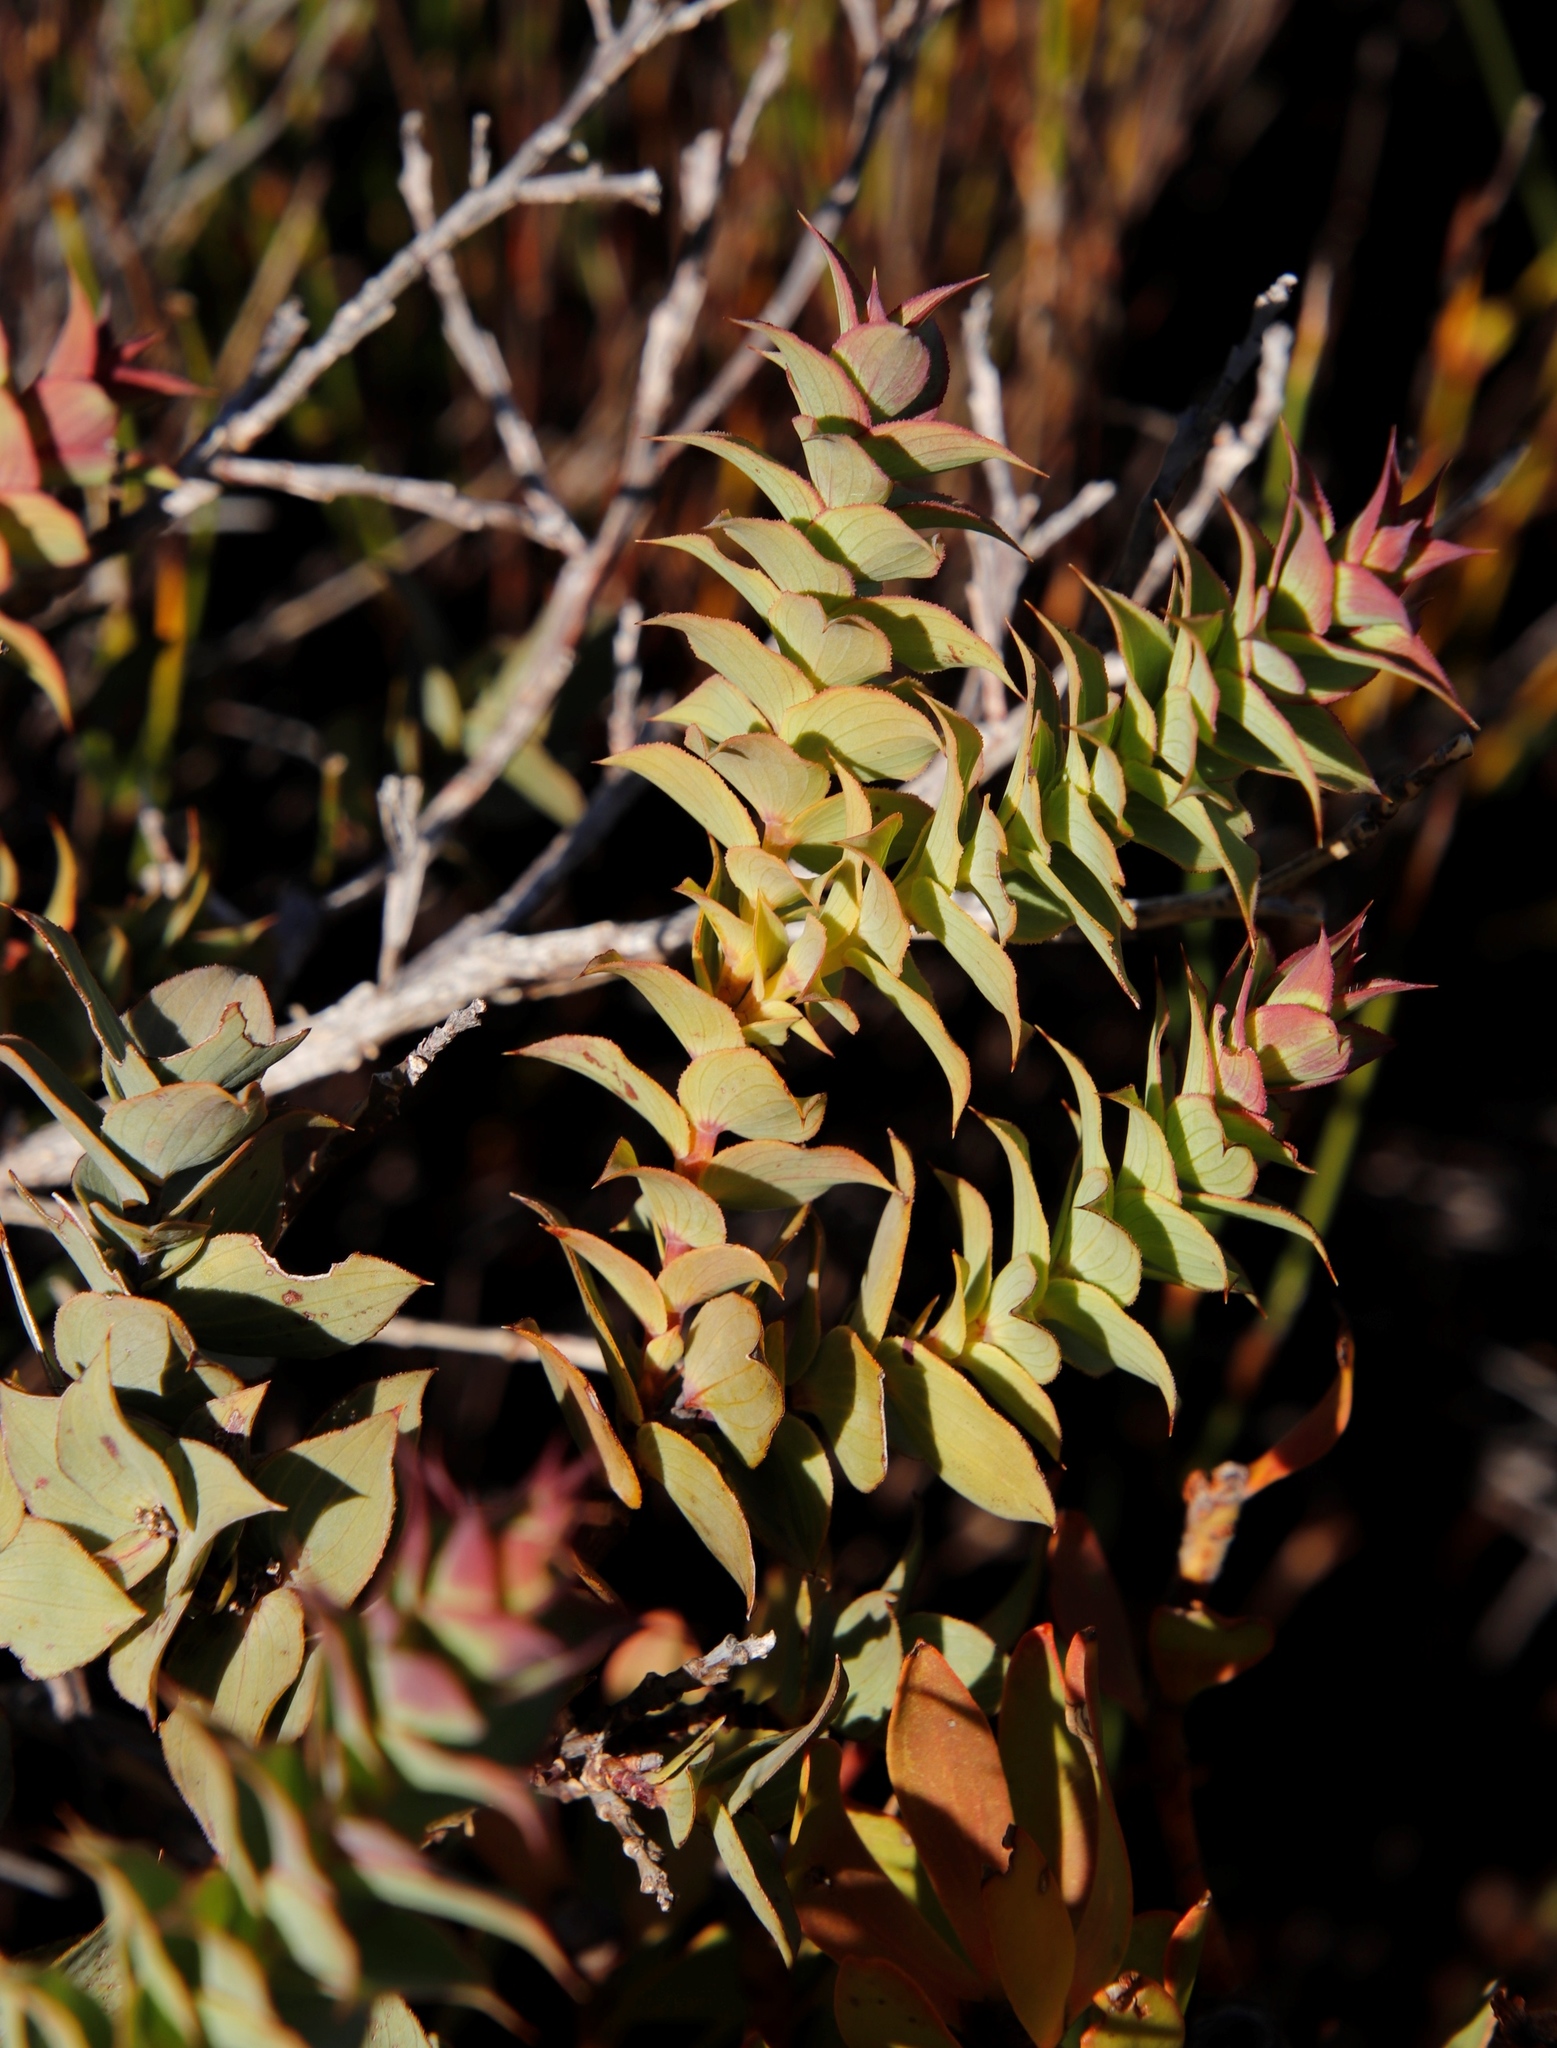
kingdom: Plantae
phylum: Tracheophyta
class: Magnoliopsida
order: Fabales
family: Fabaceae
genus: Aspalathus
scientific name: Aspalathus crenata
